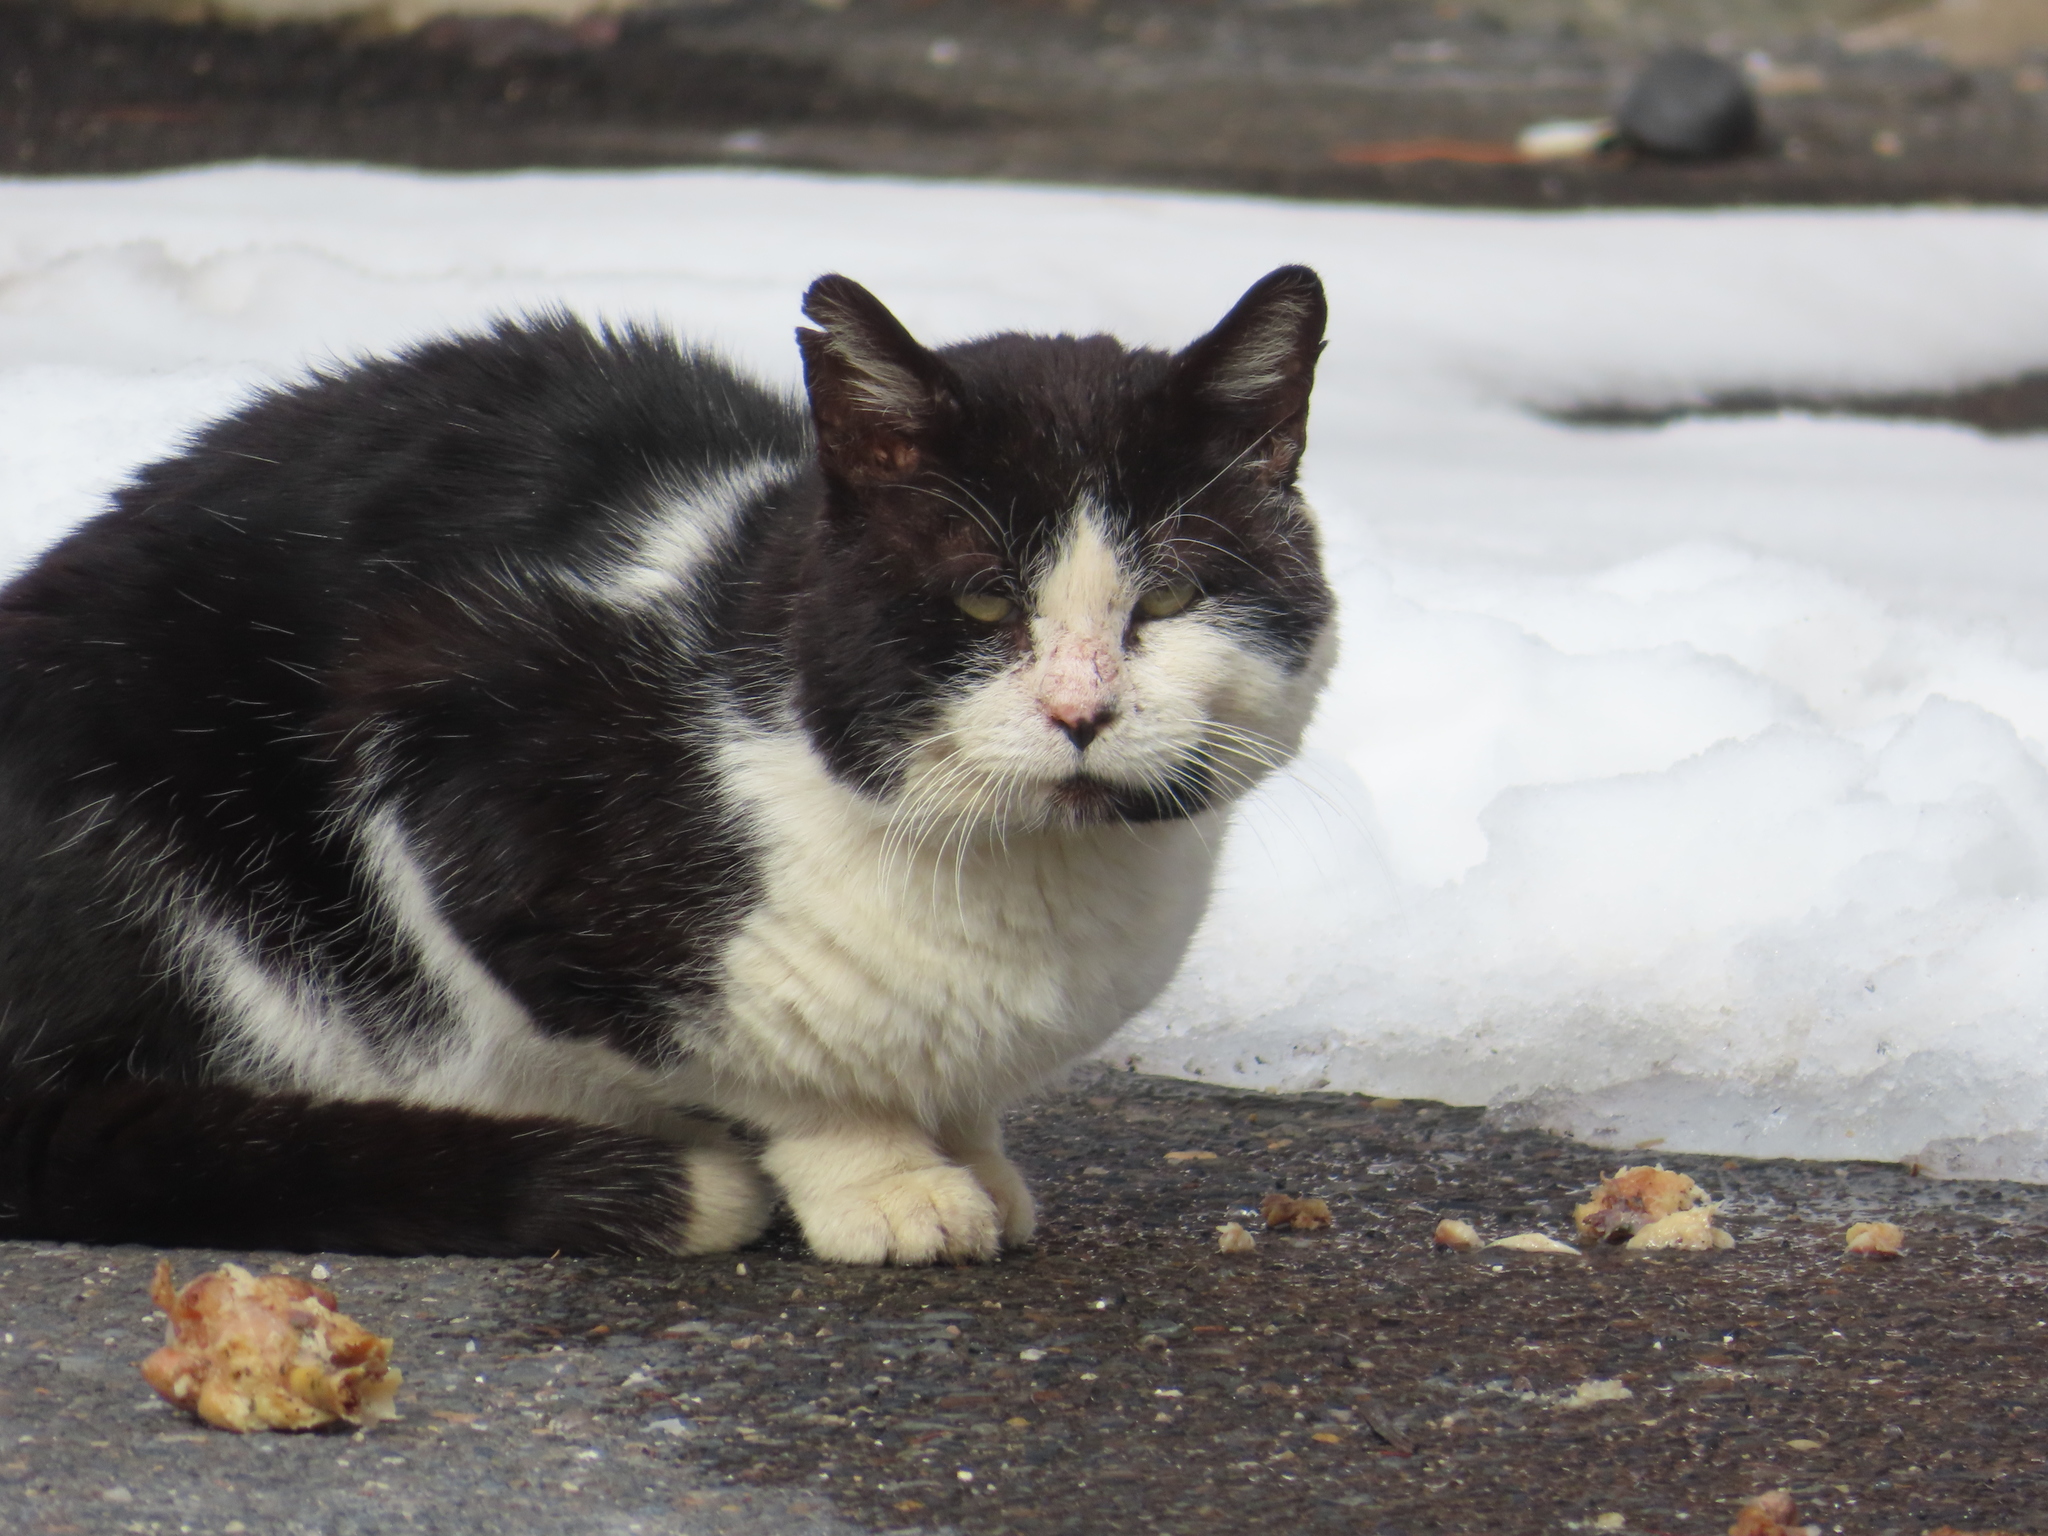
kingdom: Animalia
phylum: Chordata
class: Mammalia
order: Carnivora
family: Felidae
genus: Felis
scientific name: Felis catus
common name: Domestic cat
